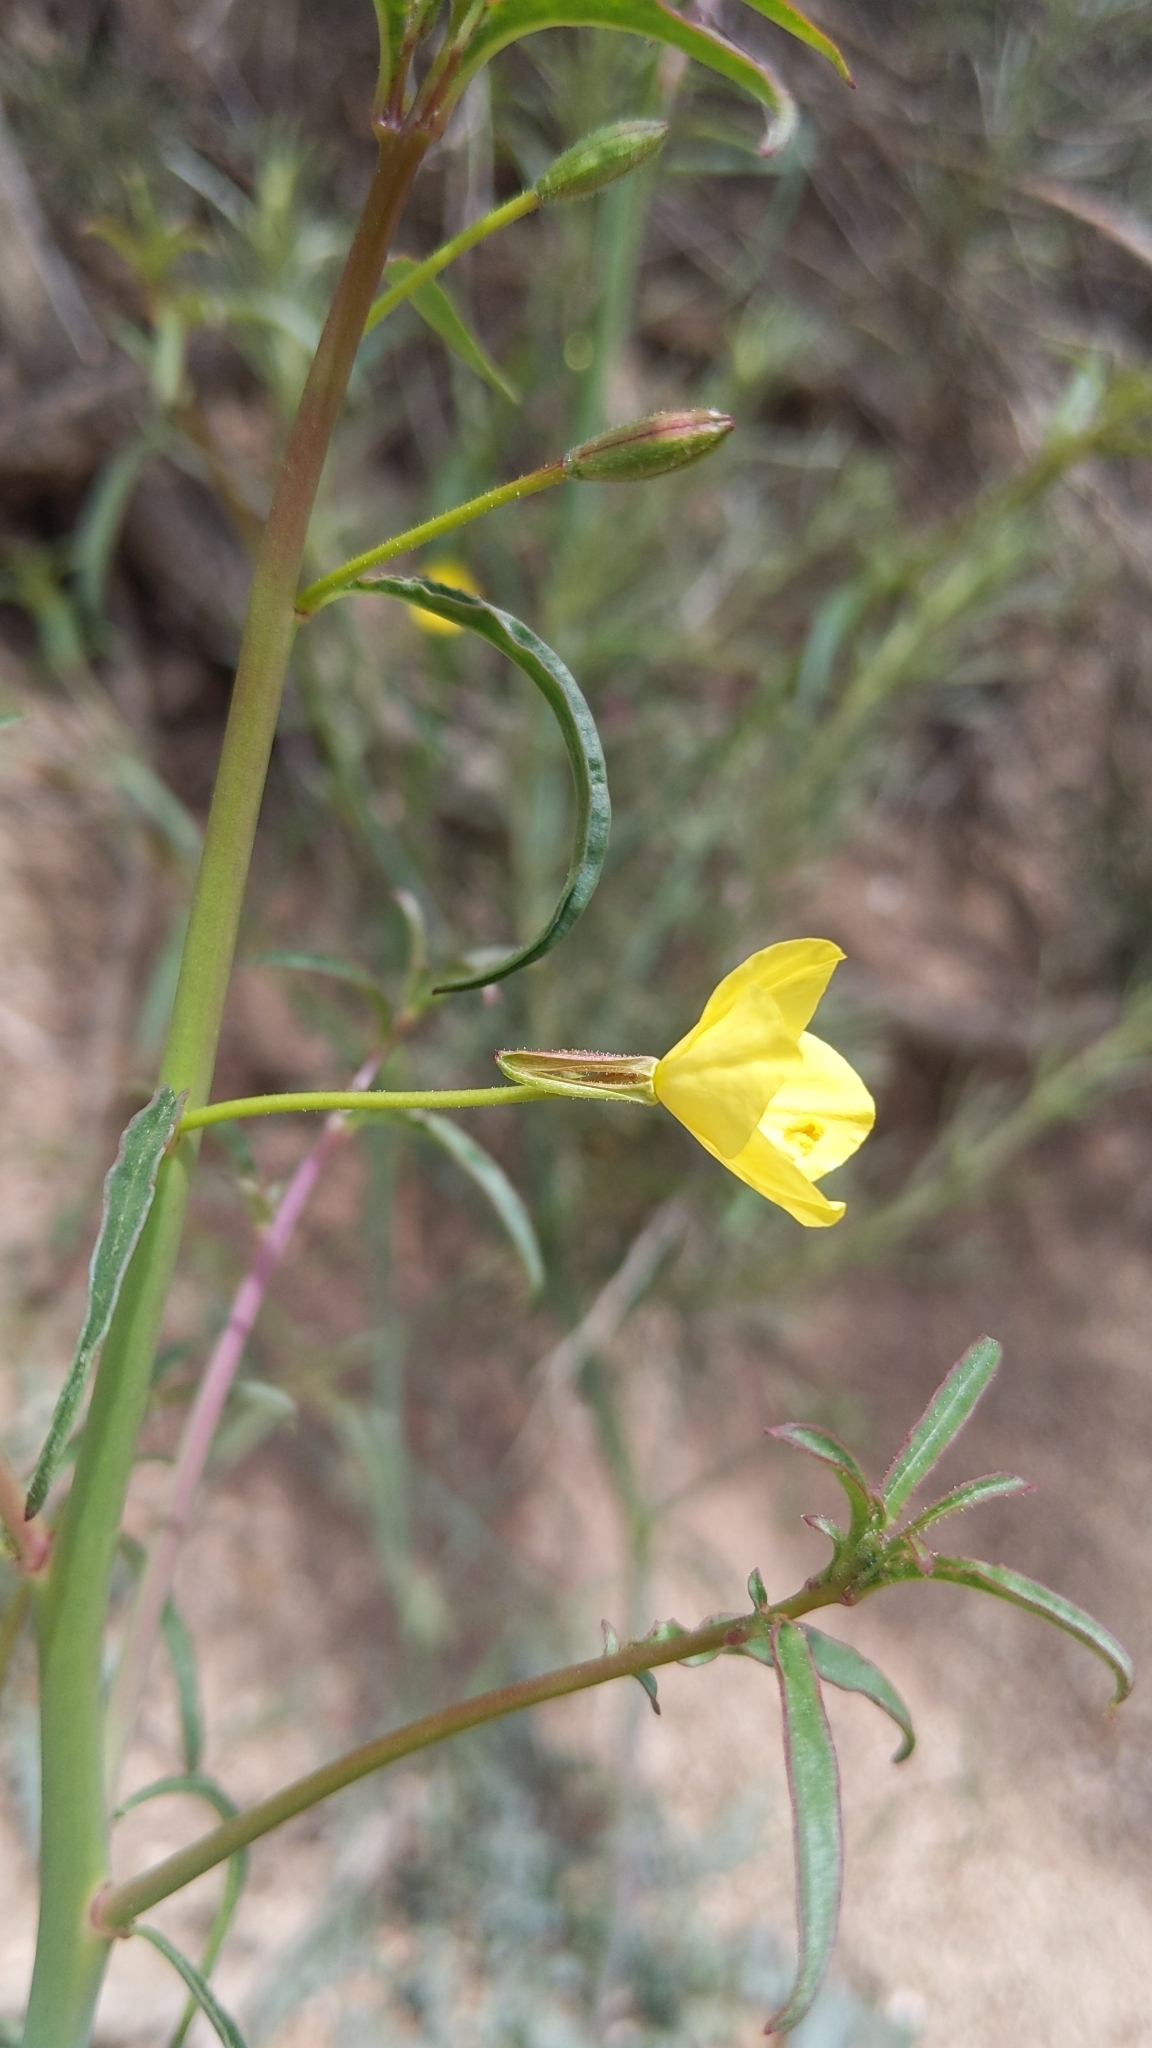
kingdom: Plantae
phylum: Tracheophyta
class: Magnoliopsida
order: Myrtales
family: Onagraceae
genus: Eulobus
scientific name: Eulobus californicus
